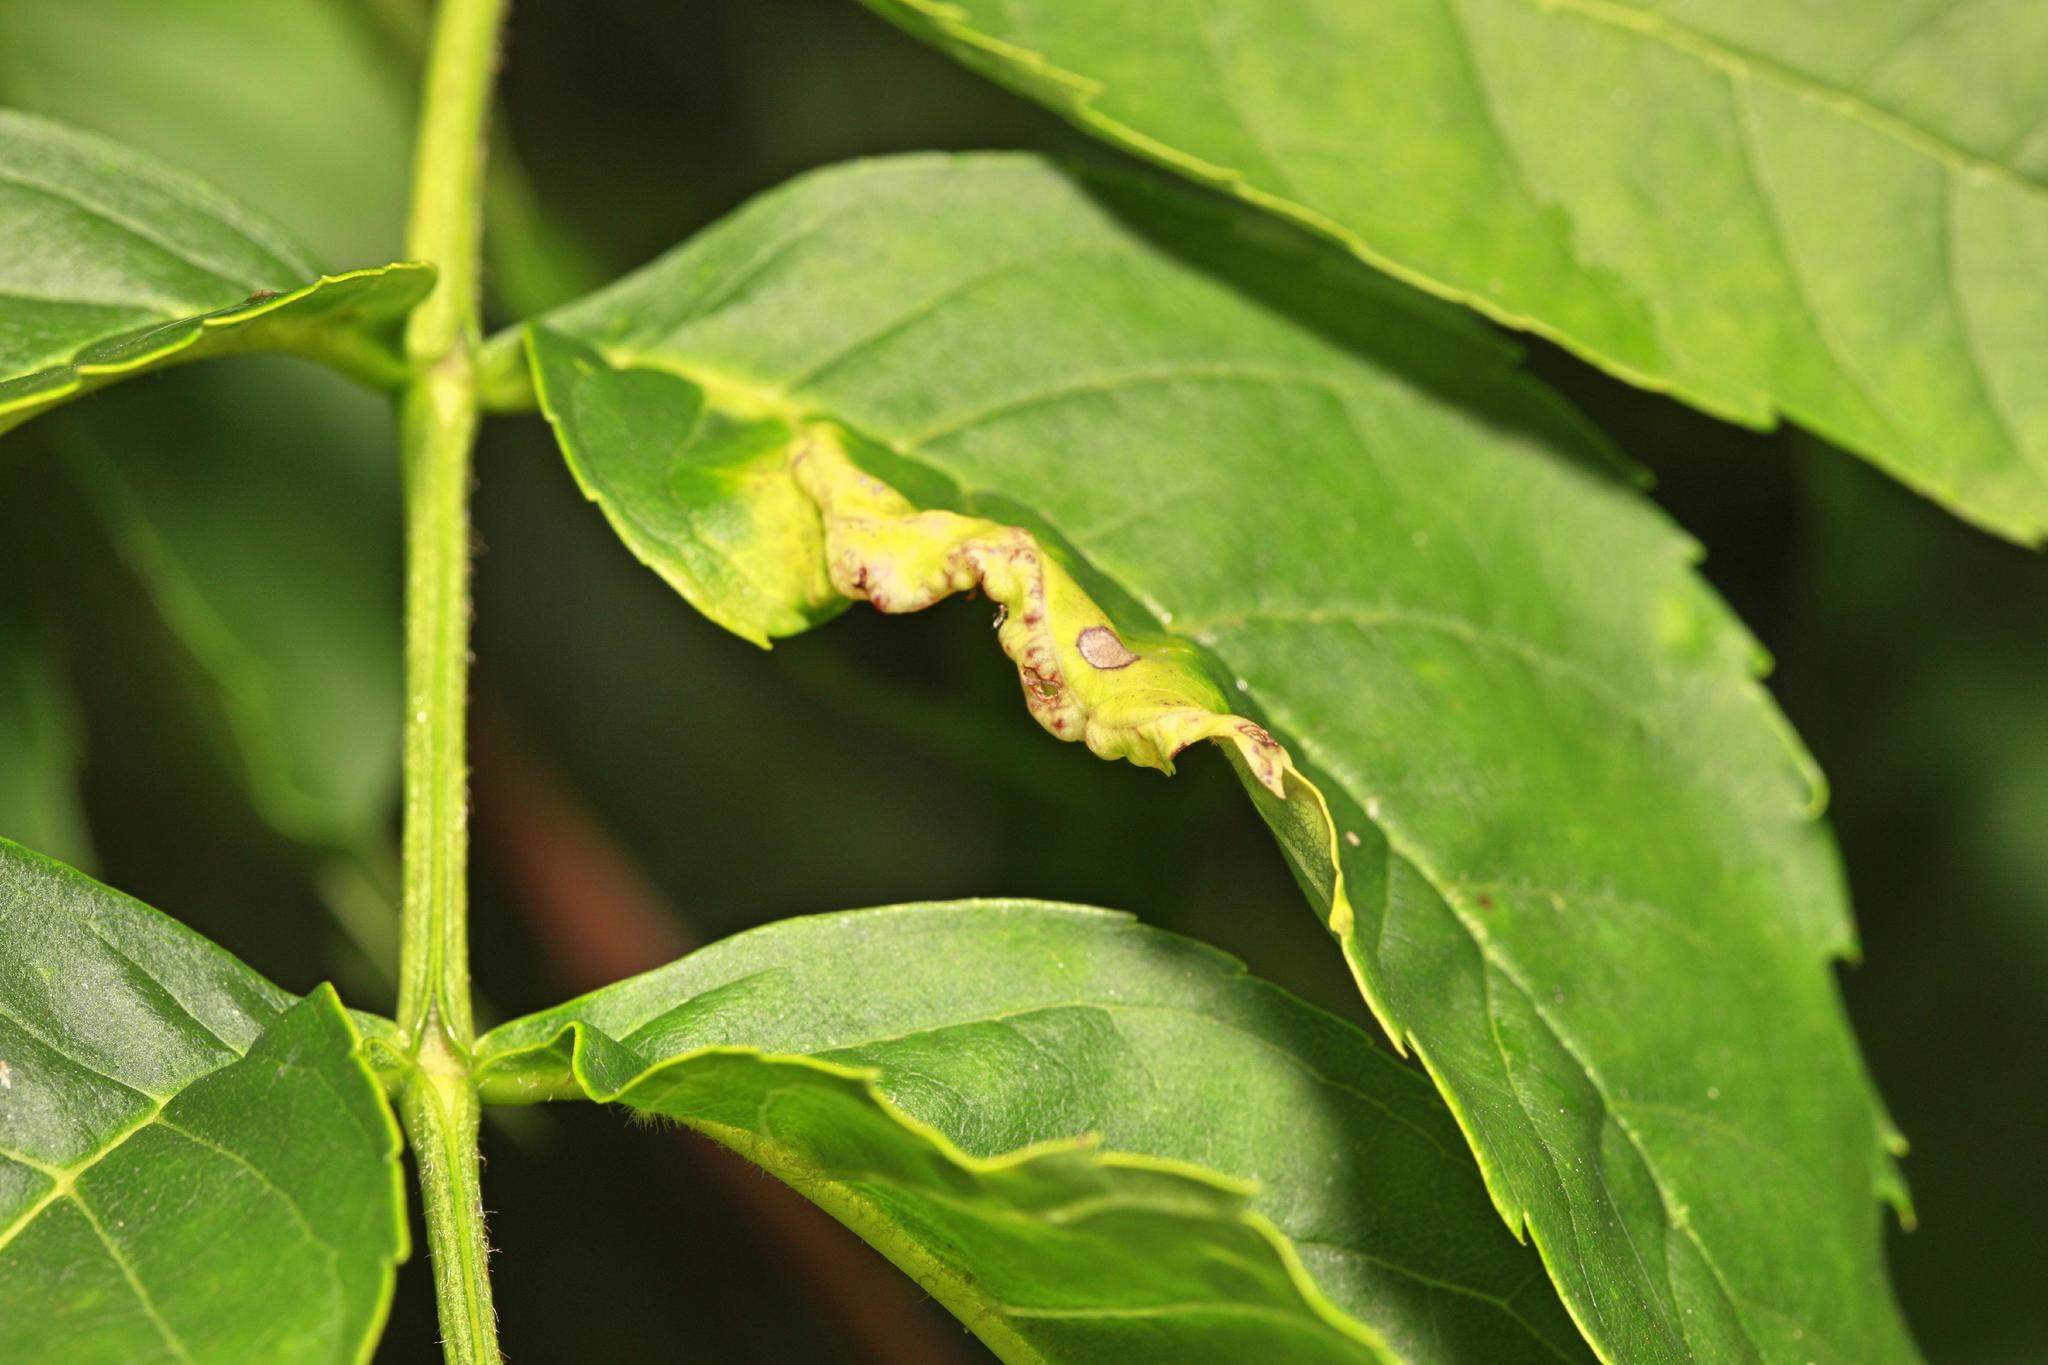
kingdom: Animalia
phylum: Arthropoda
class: Insecta
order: Hemiptera
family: Liviidae
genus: Psyllopsis
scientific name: Psyllopsis fraxini
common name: Jumping plant louse
